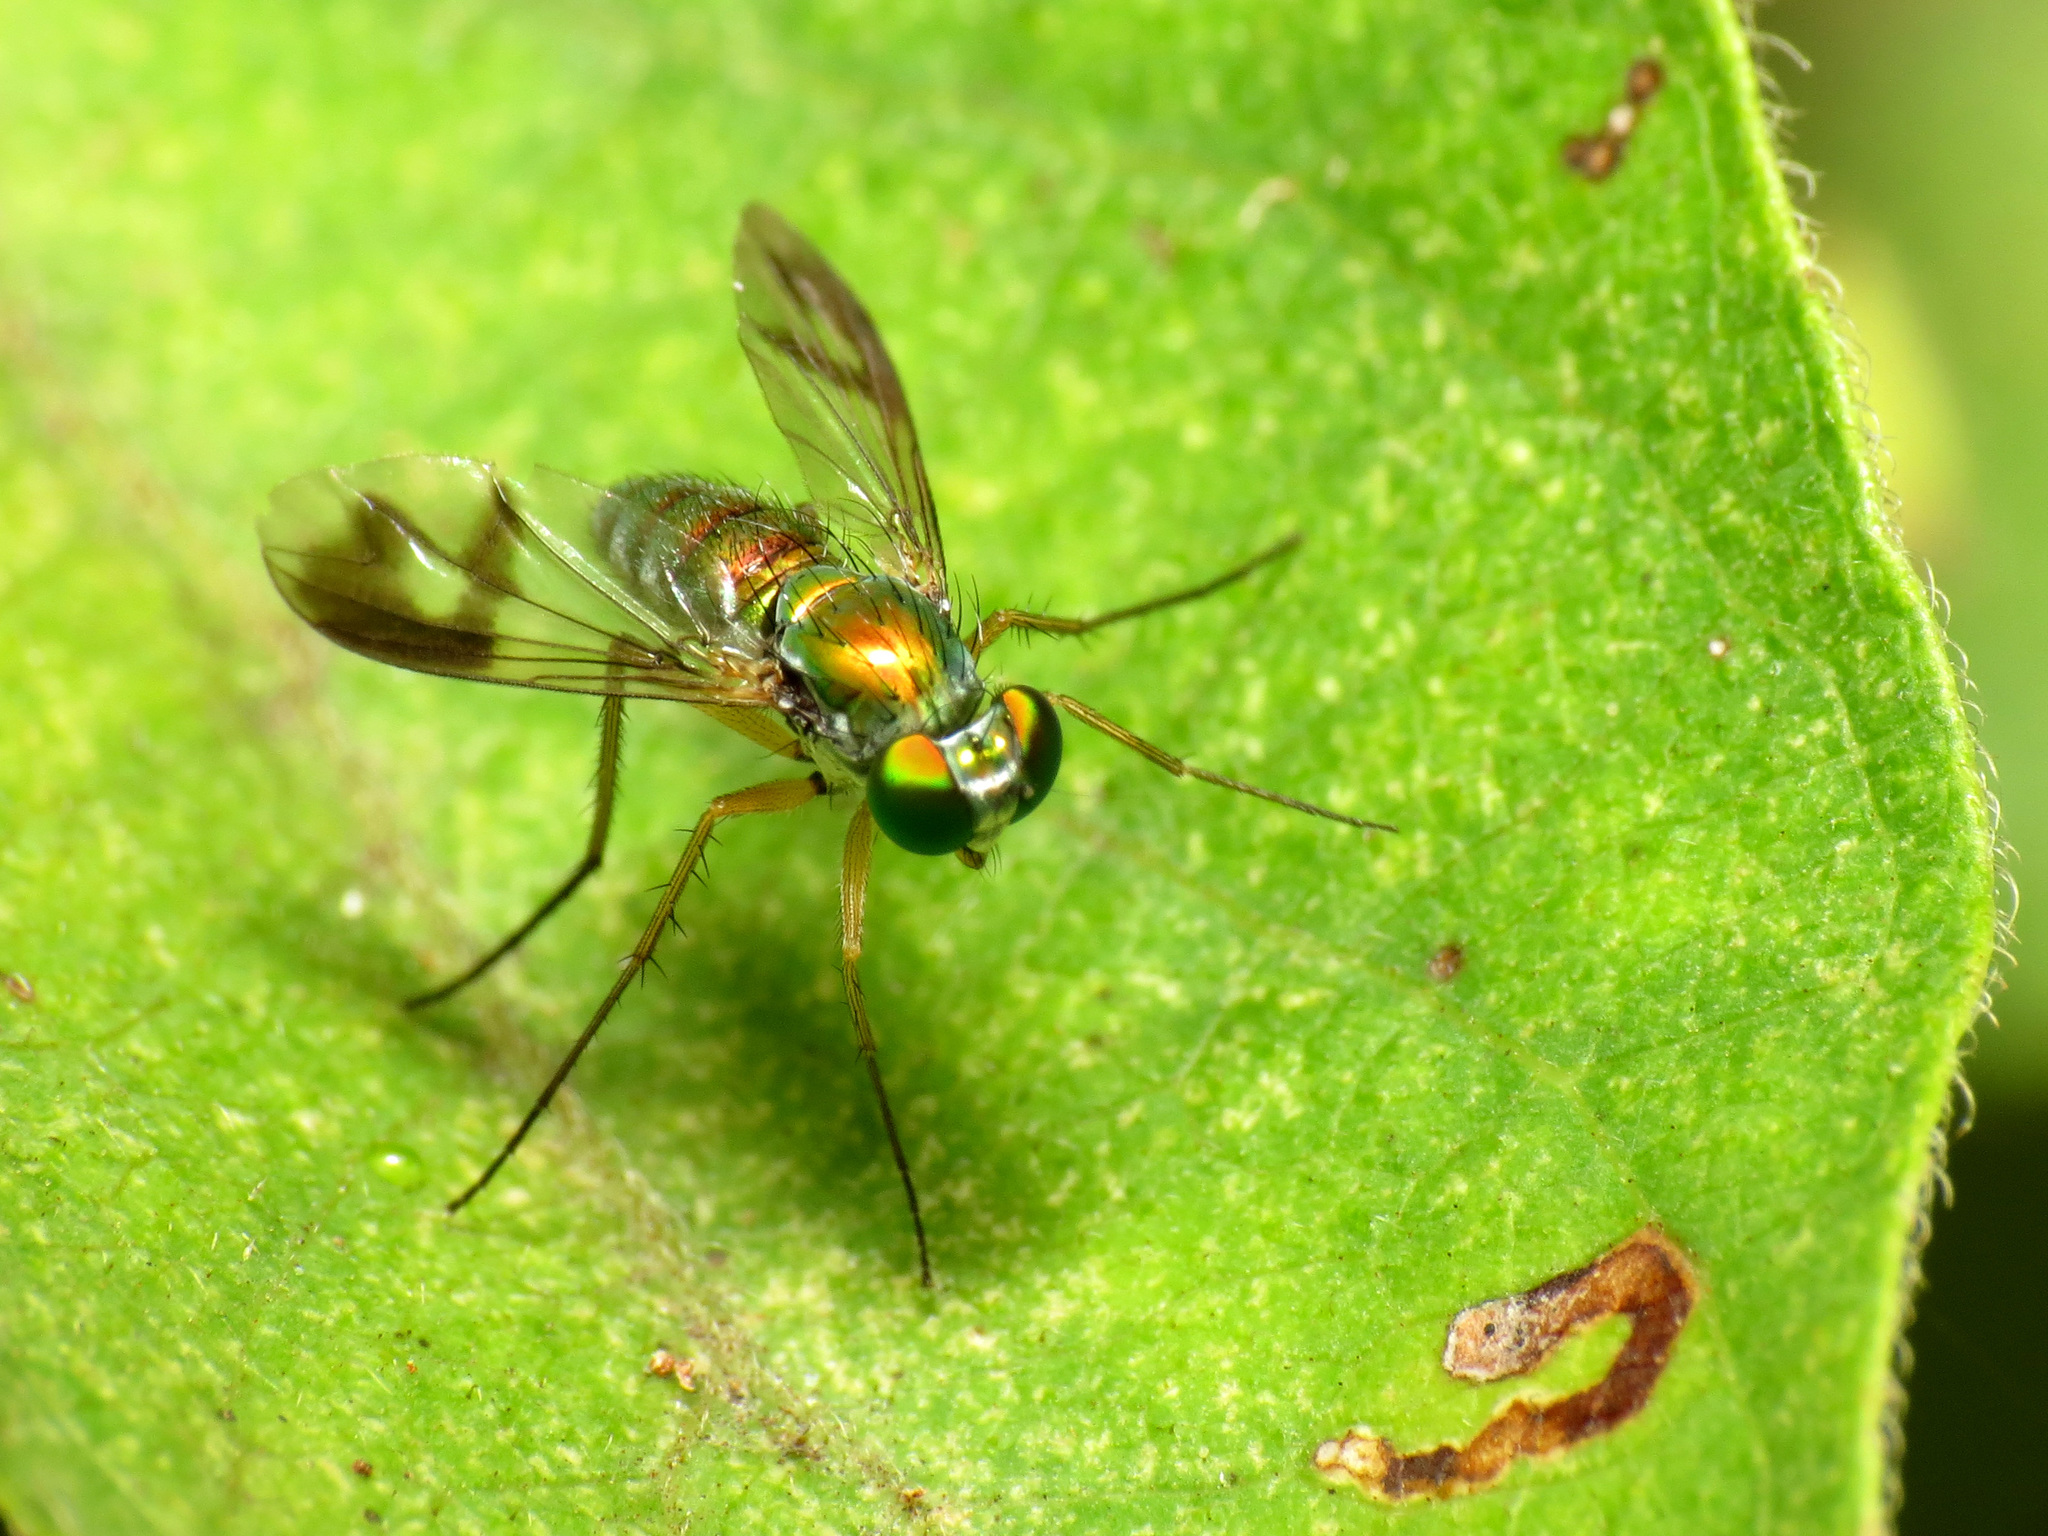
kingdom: Animalia
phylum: Arthropoda
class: Insecta
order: Diptera
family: Dolichopodidae
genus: Condylostylus
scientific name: Condylostylus
